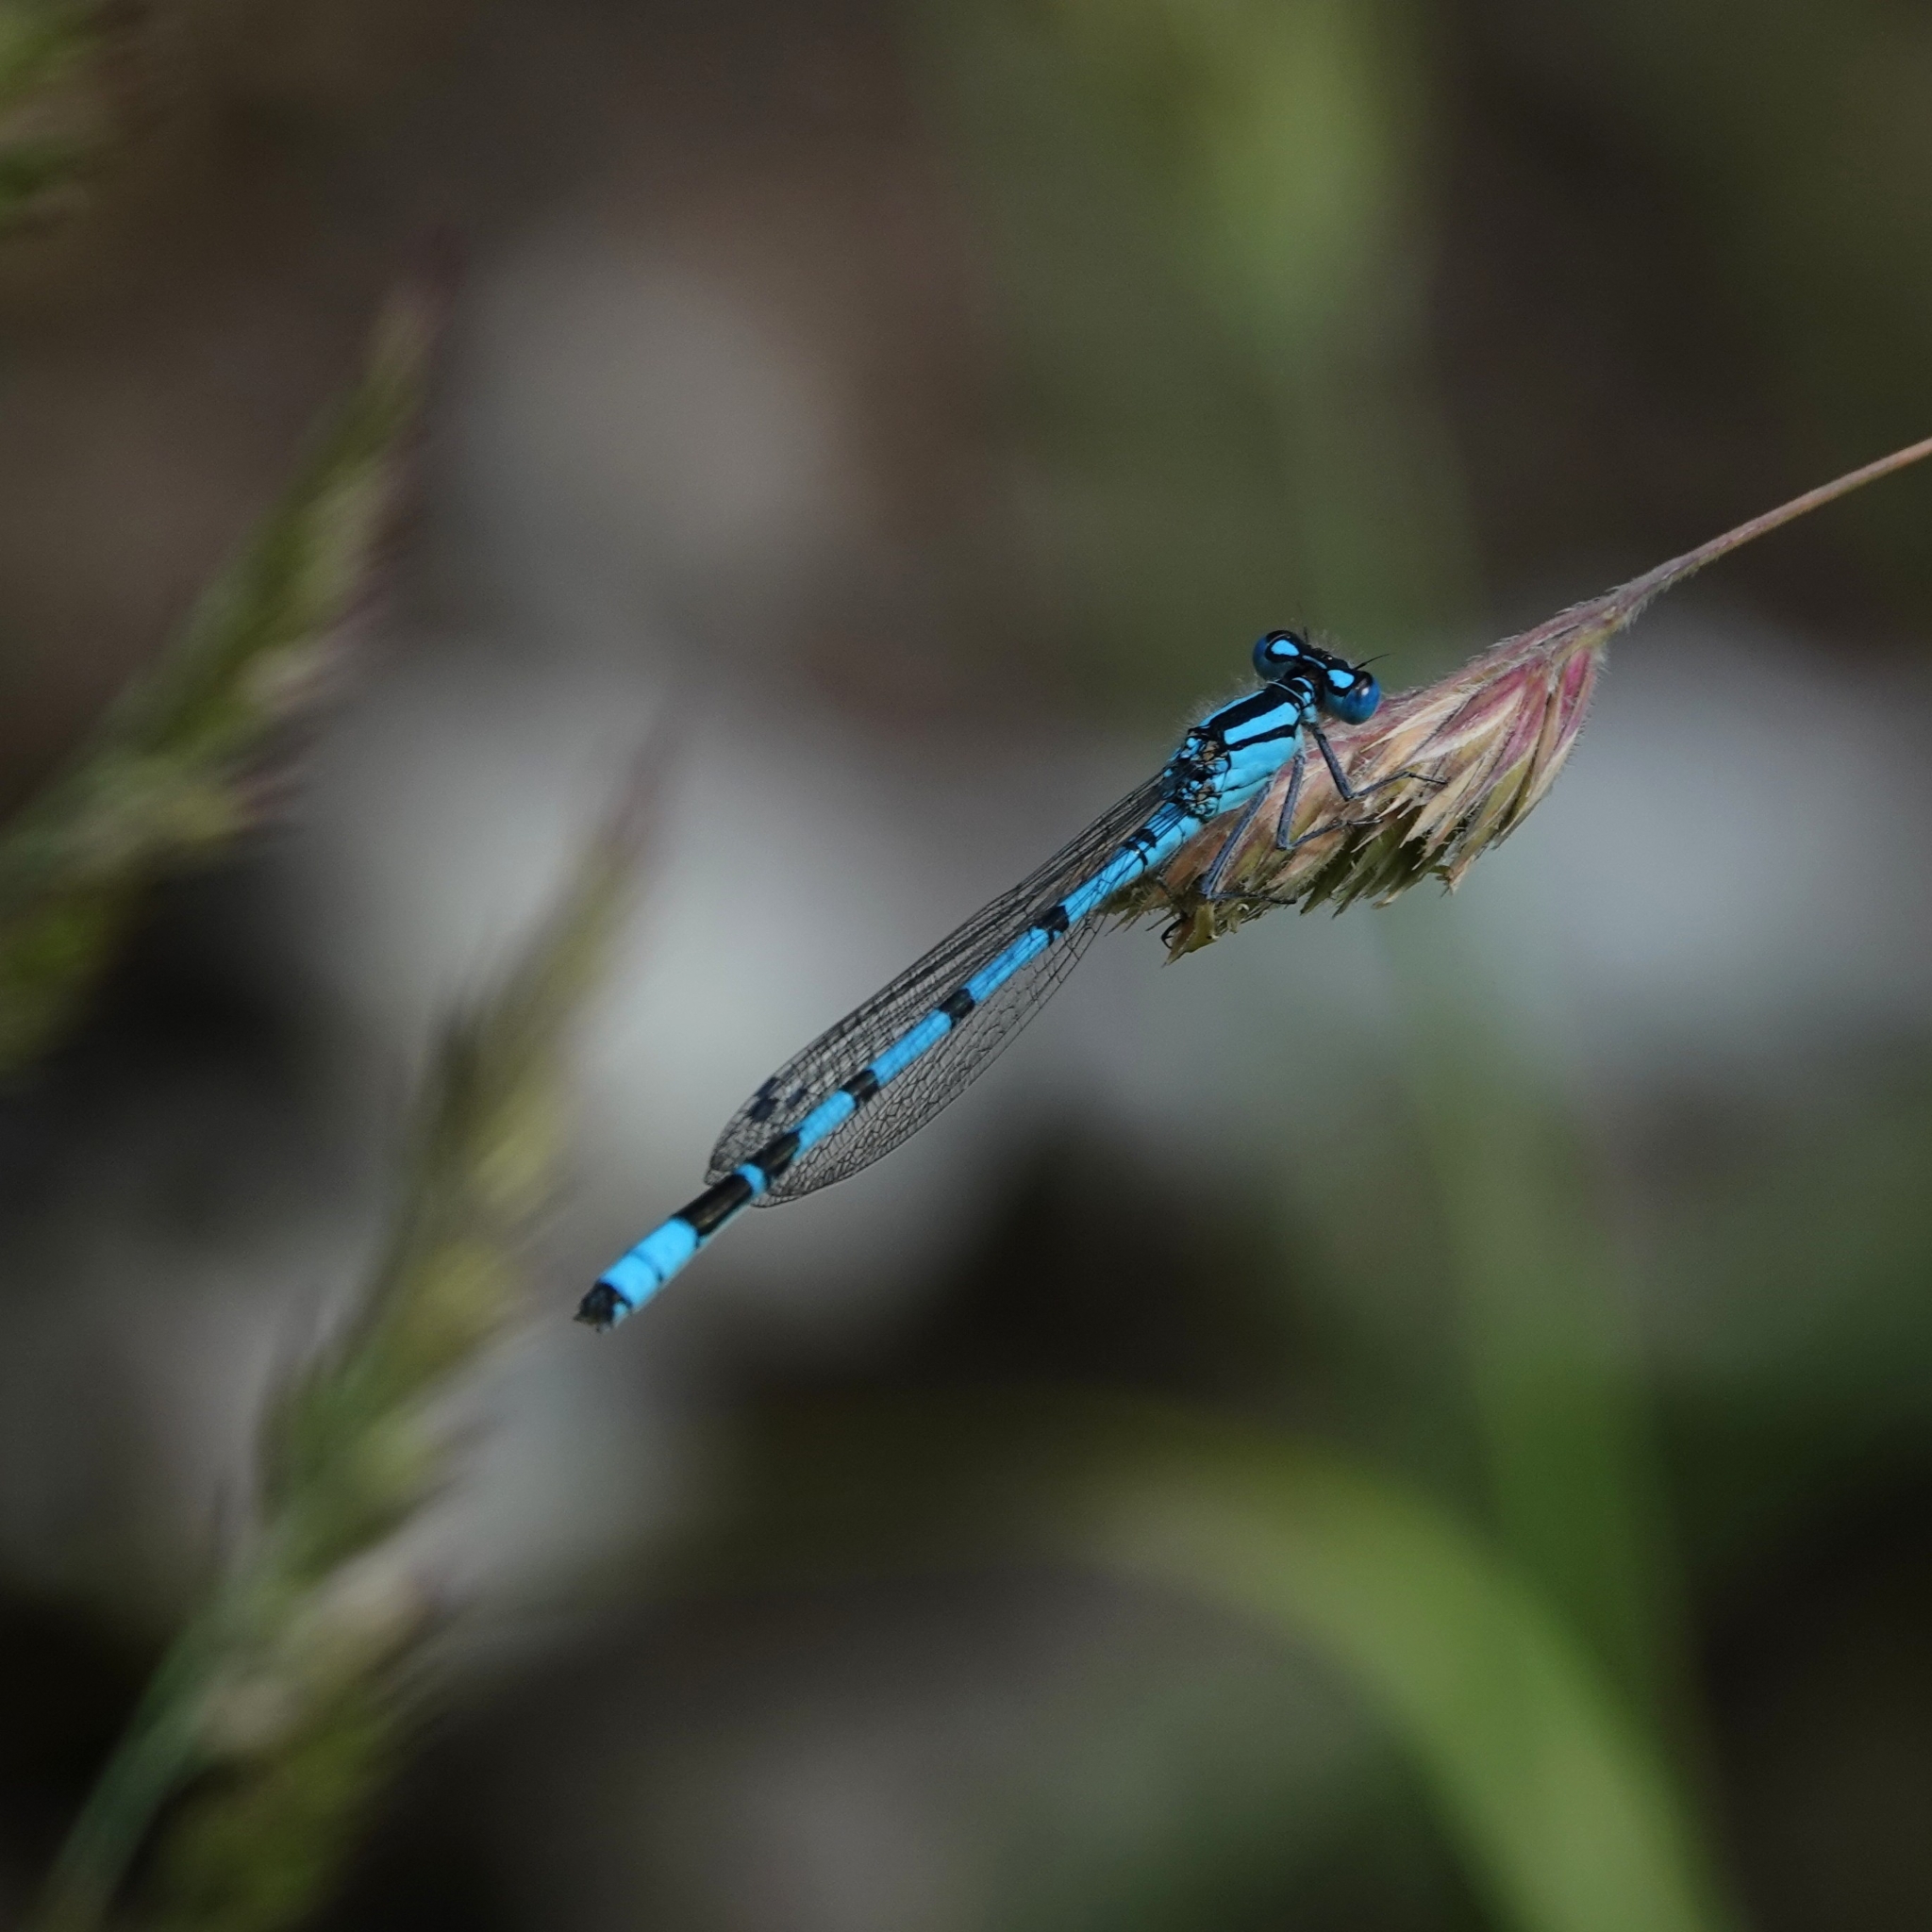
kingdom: Animalia
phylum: Arthropoda
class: Insecta
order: Odonata
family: Coenagrionidae
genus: Enallagma
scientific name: Enallagma cyathigerum
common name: Common blue damselfly
